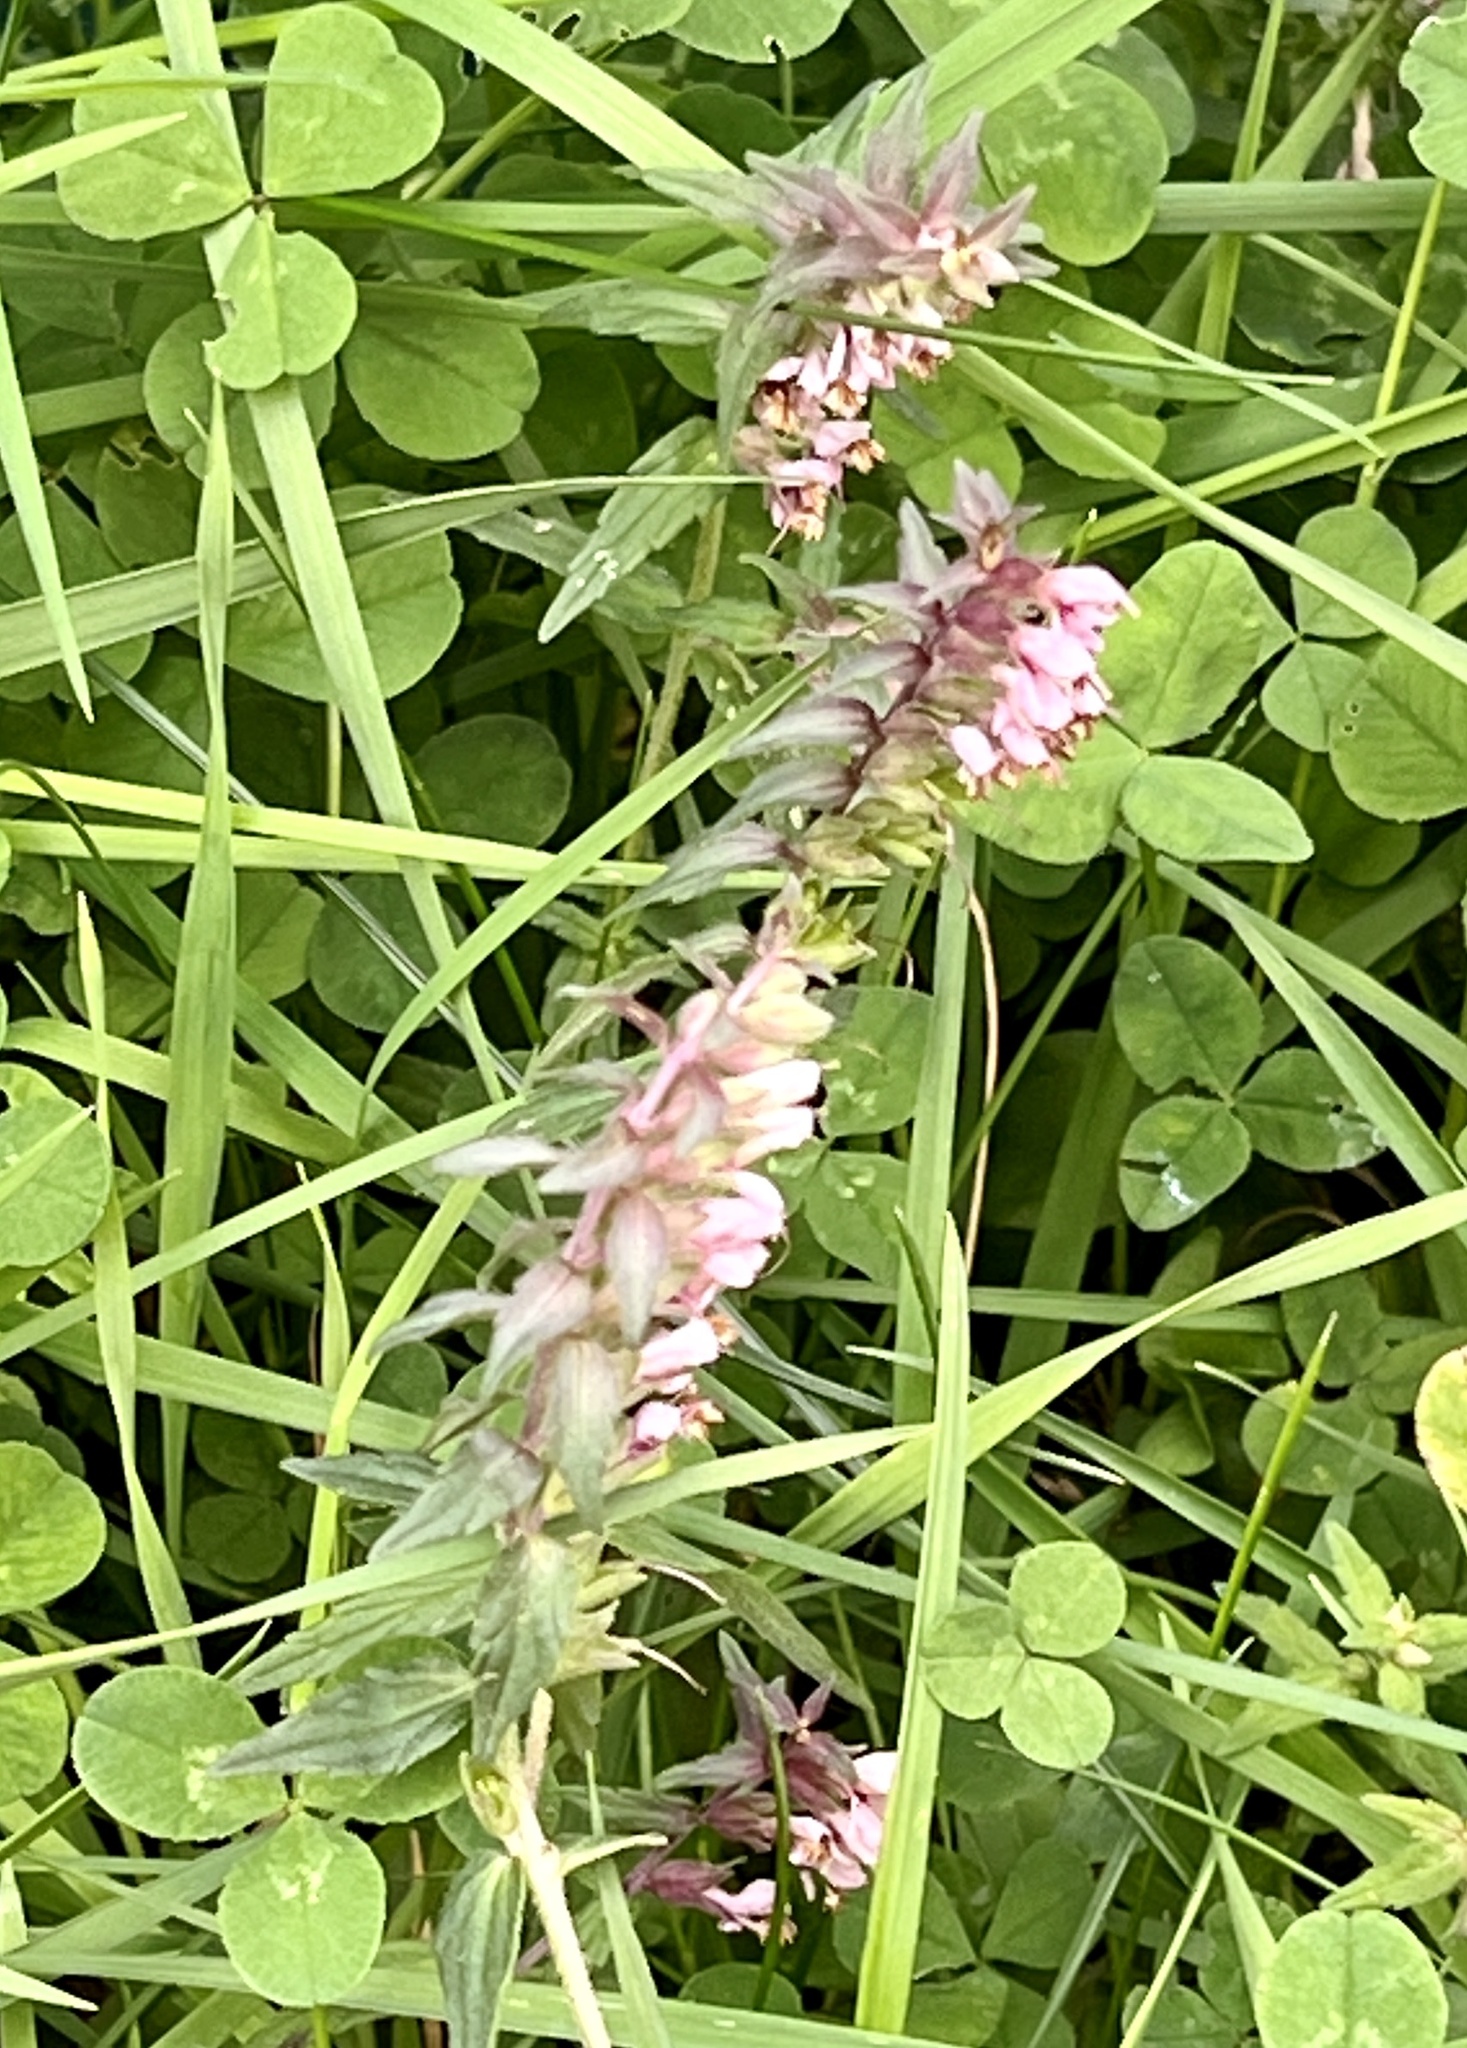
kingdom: Plantae
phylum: Tracheophyta
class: Magnoliopsida
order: Lamiales
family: Orobanchaceae
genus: Odontites
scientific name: Odontites vulgaris
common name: Broomrape
